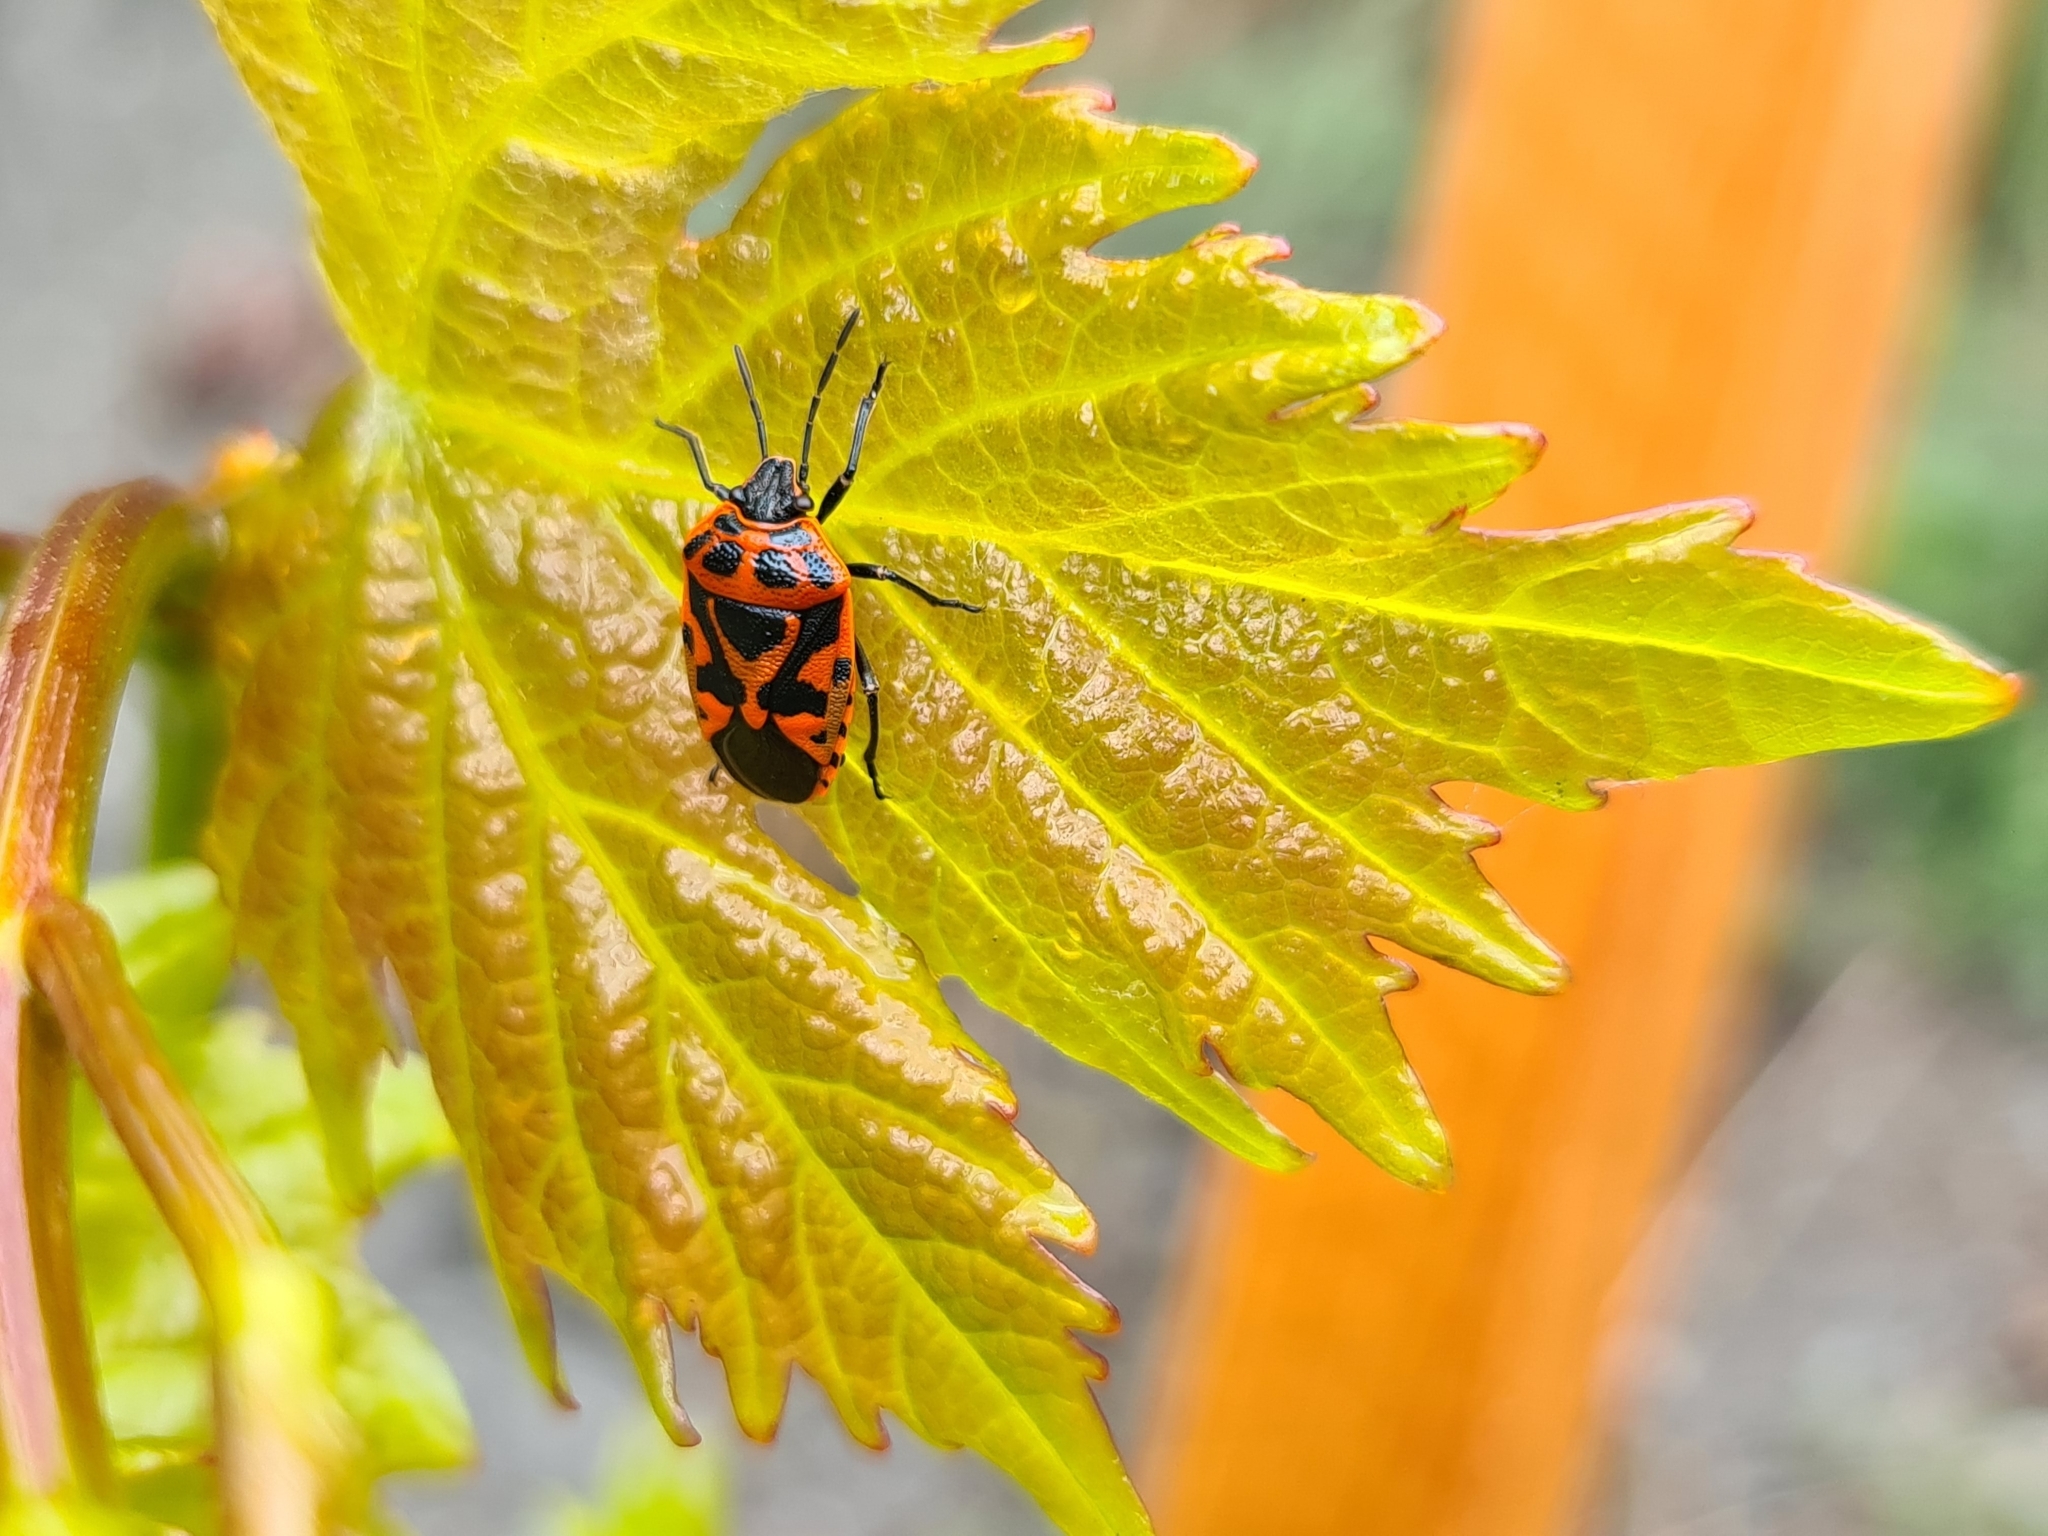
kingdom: Animalia
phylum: Arthropoda
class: Insecta
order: Hemiptera
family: Pentatomidae
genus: Eurydema
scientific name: Eurydema ornata
